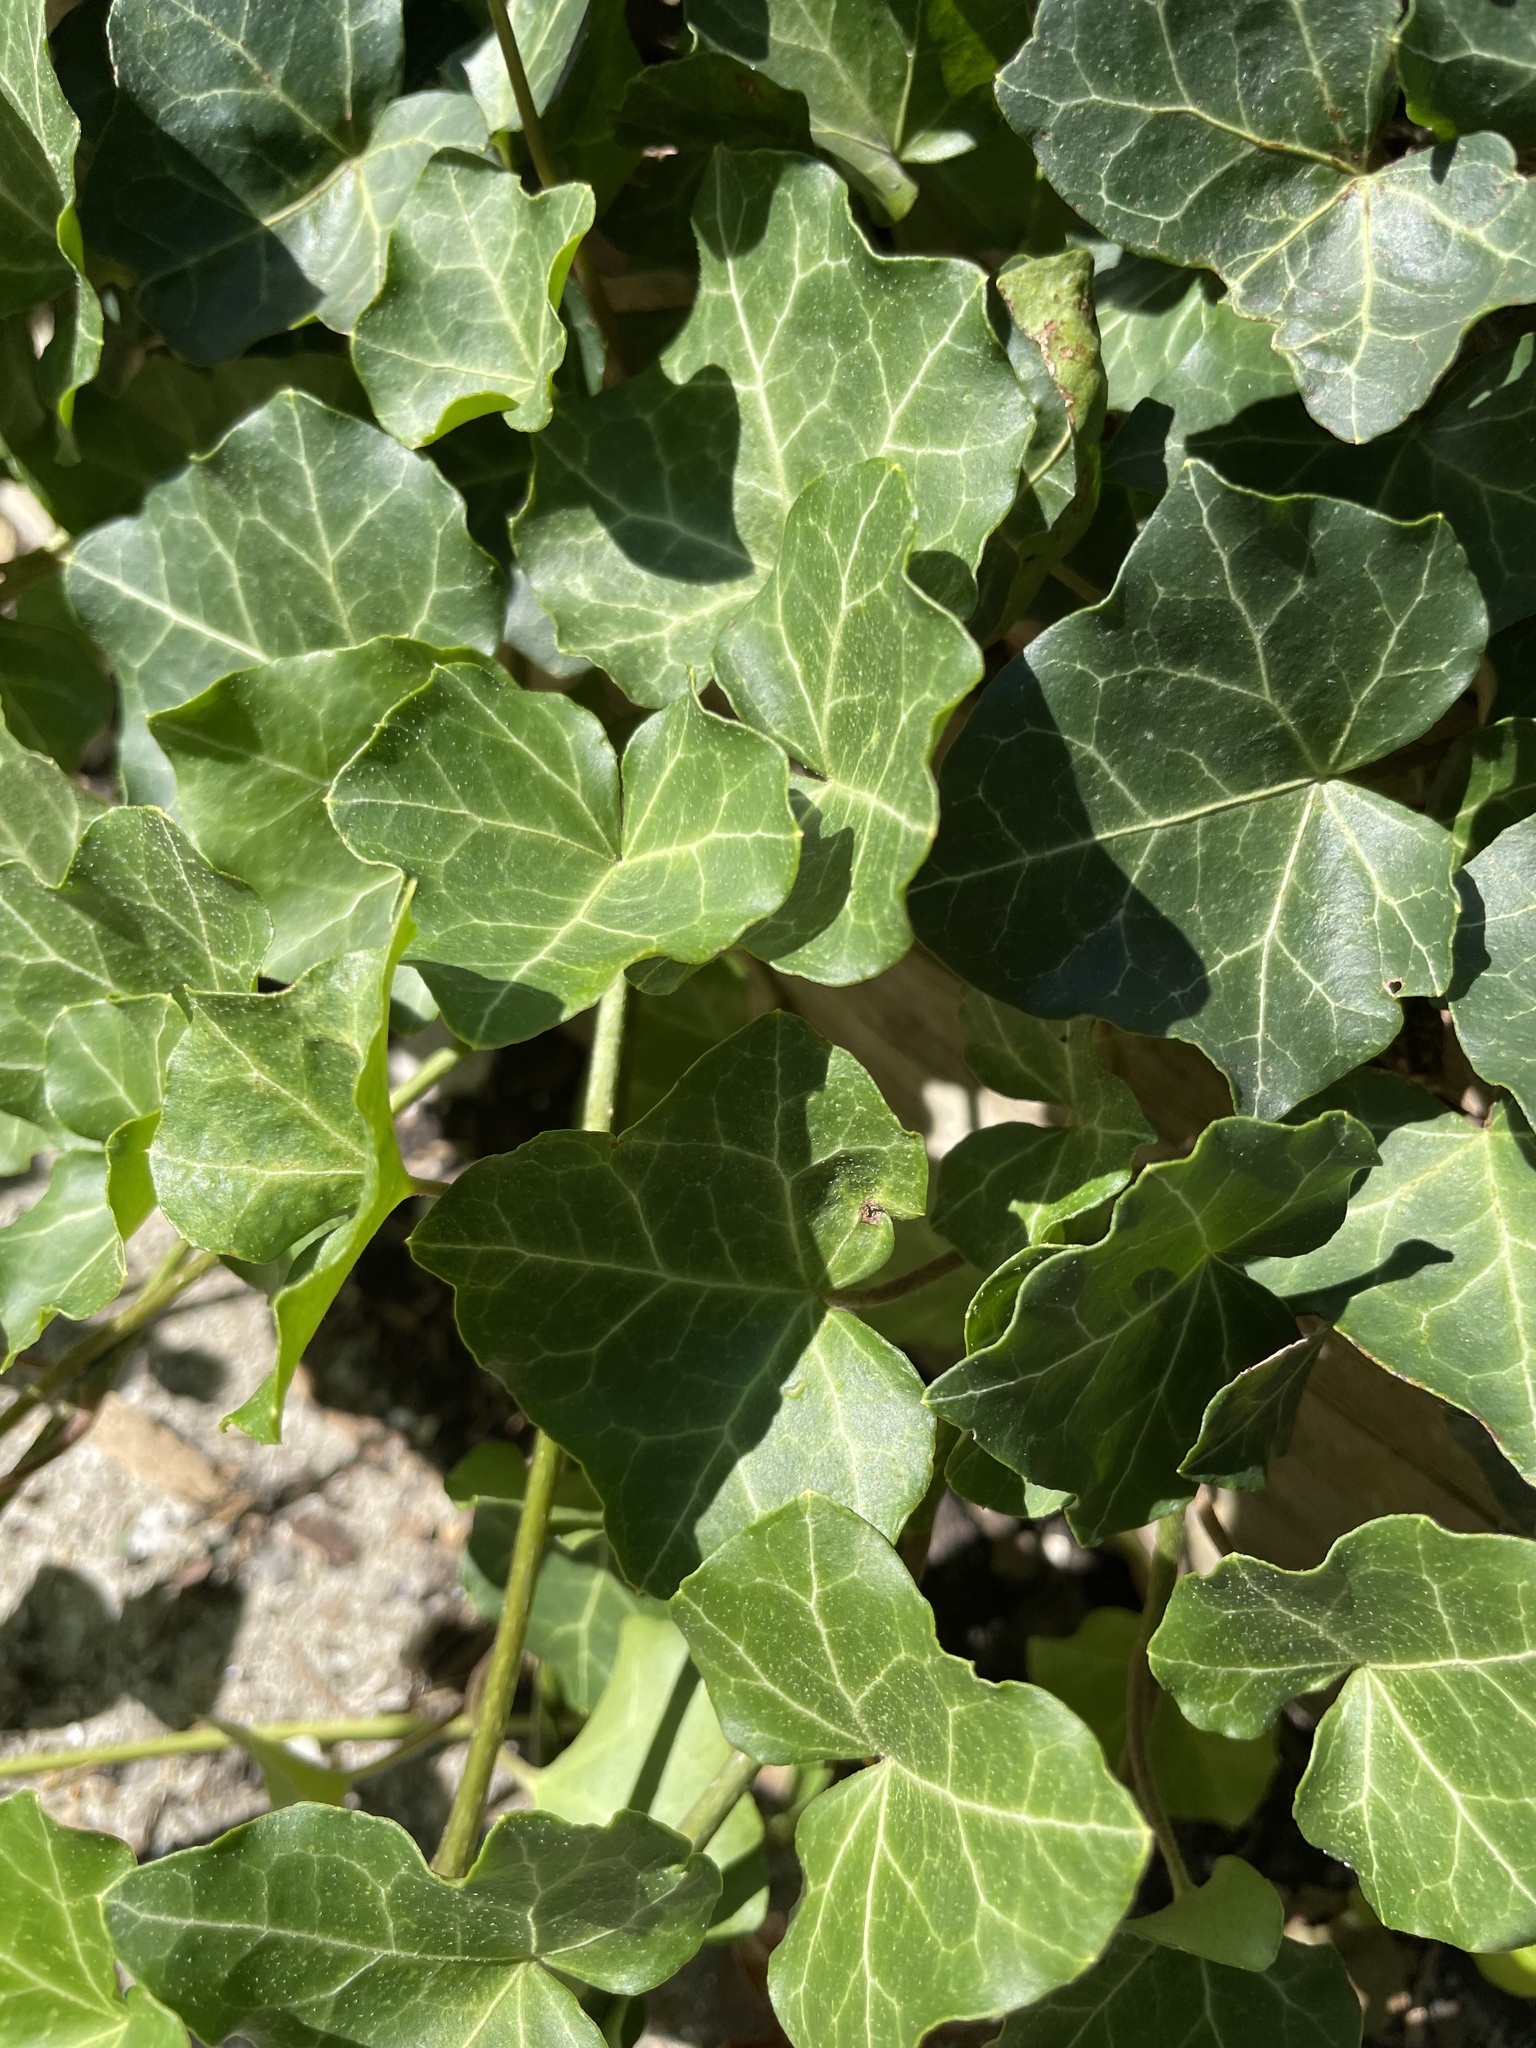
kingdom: Plantae
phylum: Tracheophyta
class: Magnoliopsida
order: Apiales
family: Araliaceae
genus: Hedera
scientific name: Hedera helix
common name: Ivy
